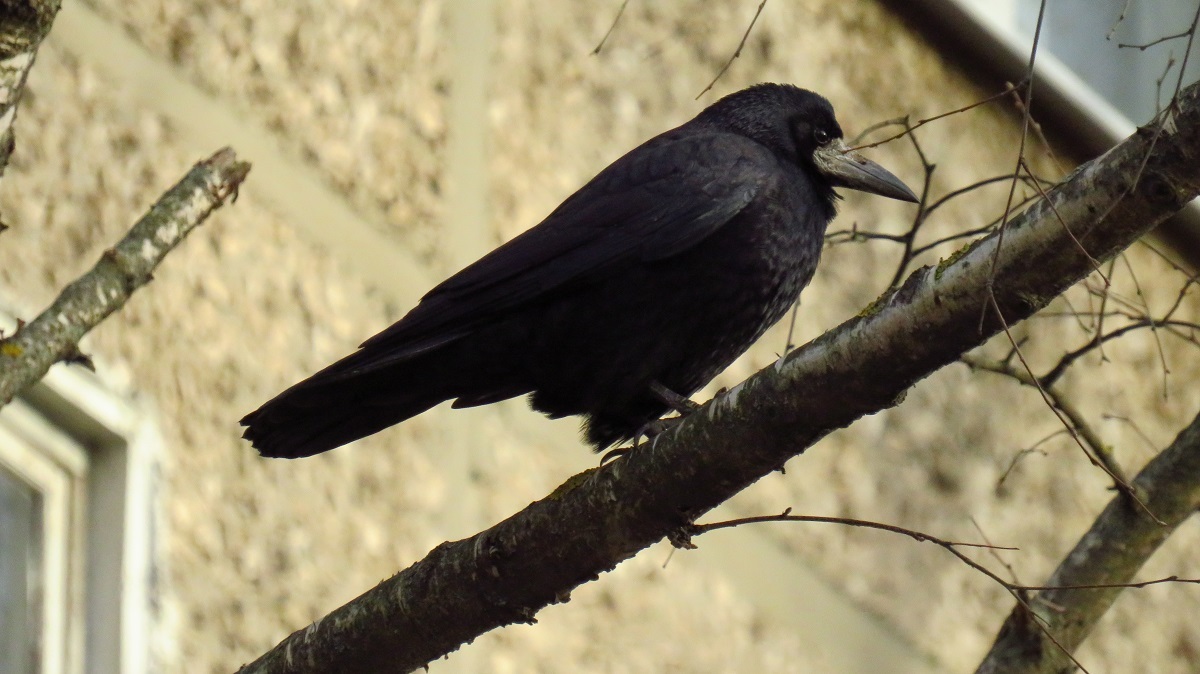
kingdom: Animalia
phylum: Chordata
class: Aves
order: Passeriformes
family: Corvidae
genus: Corvus
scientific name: Corvus frugilegus
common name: Rook
